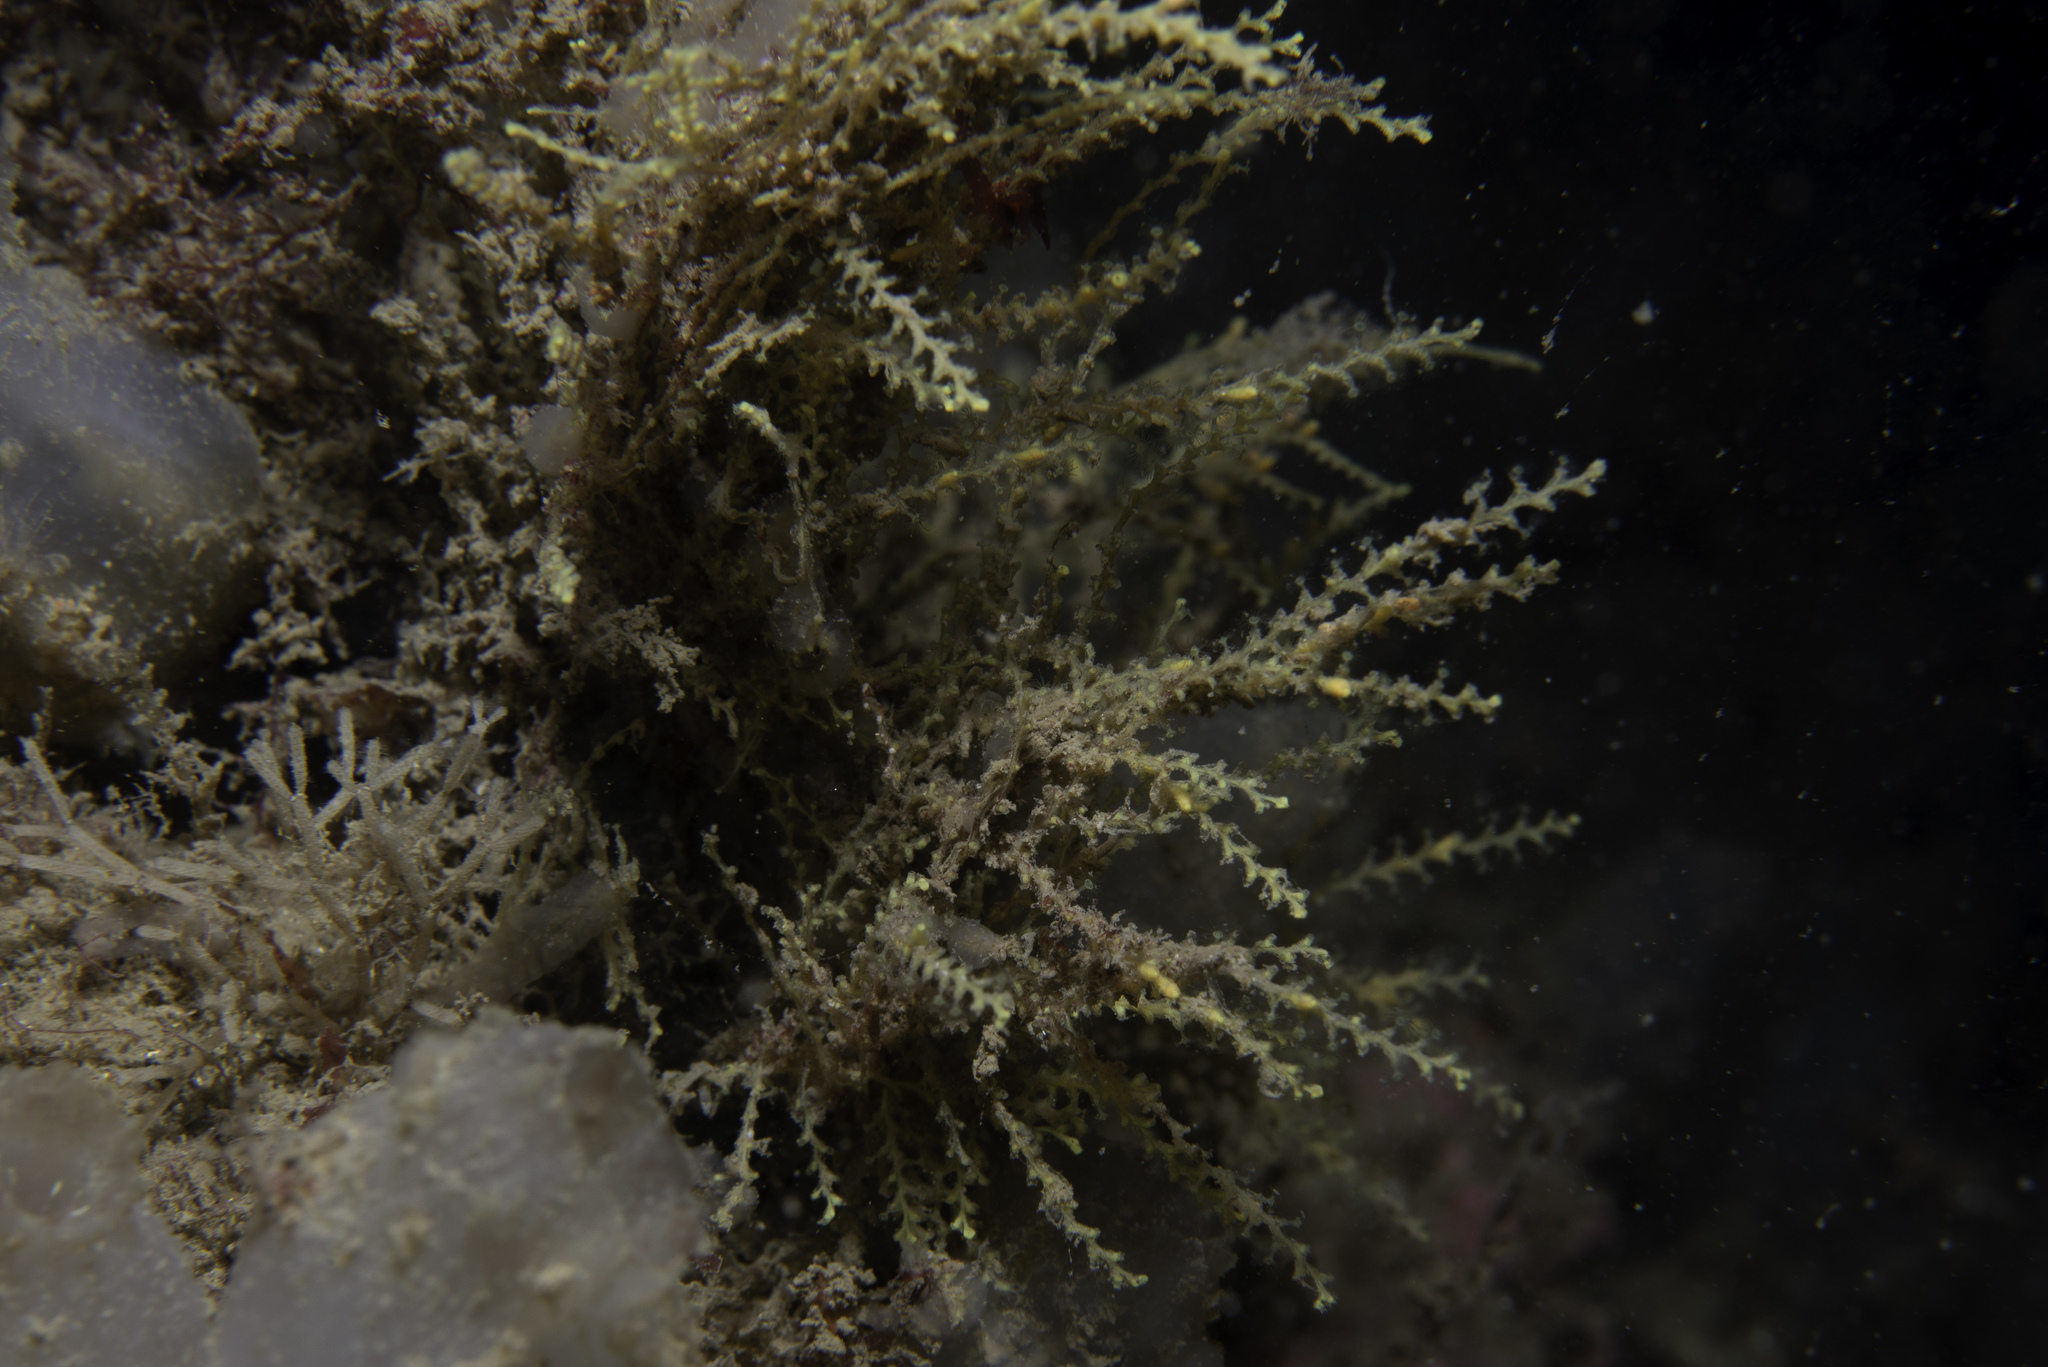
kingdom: Animalia
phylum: Cnidaria
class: Hydrozoa
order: Leptothecata
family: Sertularellidae
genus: Sertularella
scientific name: Sertularella gayi
